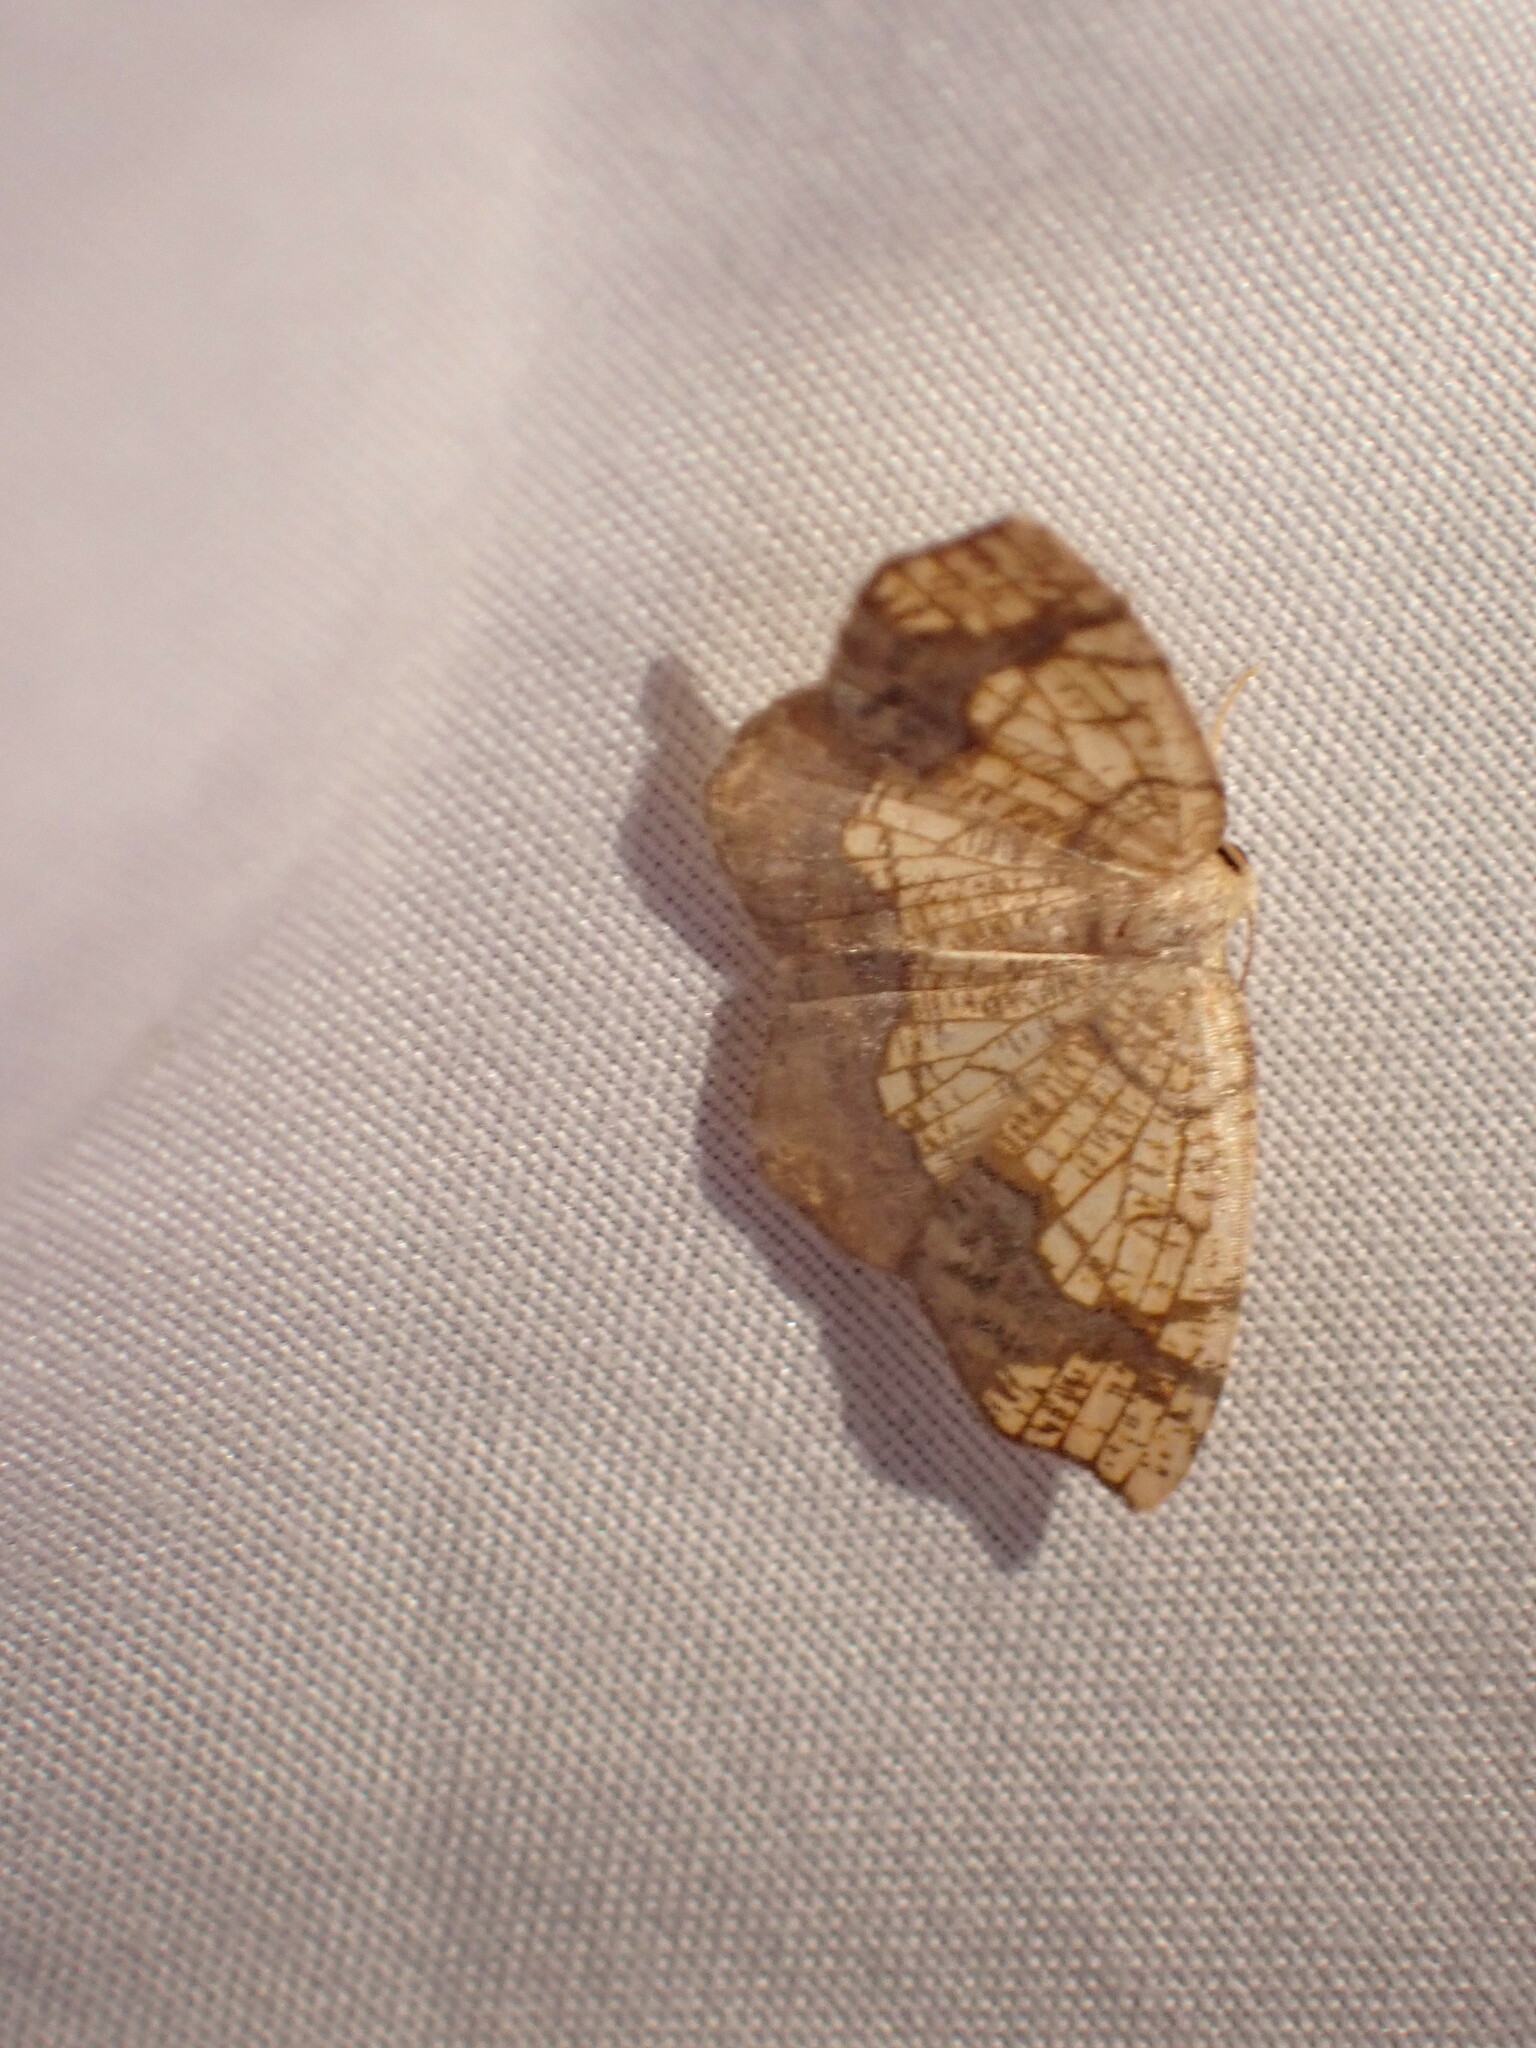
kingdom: Animalia
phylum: Arthropoda
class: Insecta
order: Lepidoptera
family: Geometridae
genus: Nematocampa
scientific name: Nematocampa resistaria
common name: Horned spanworm moth
